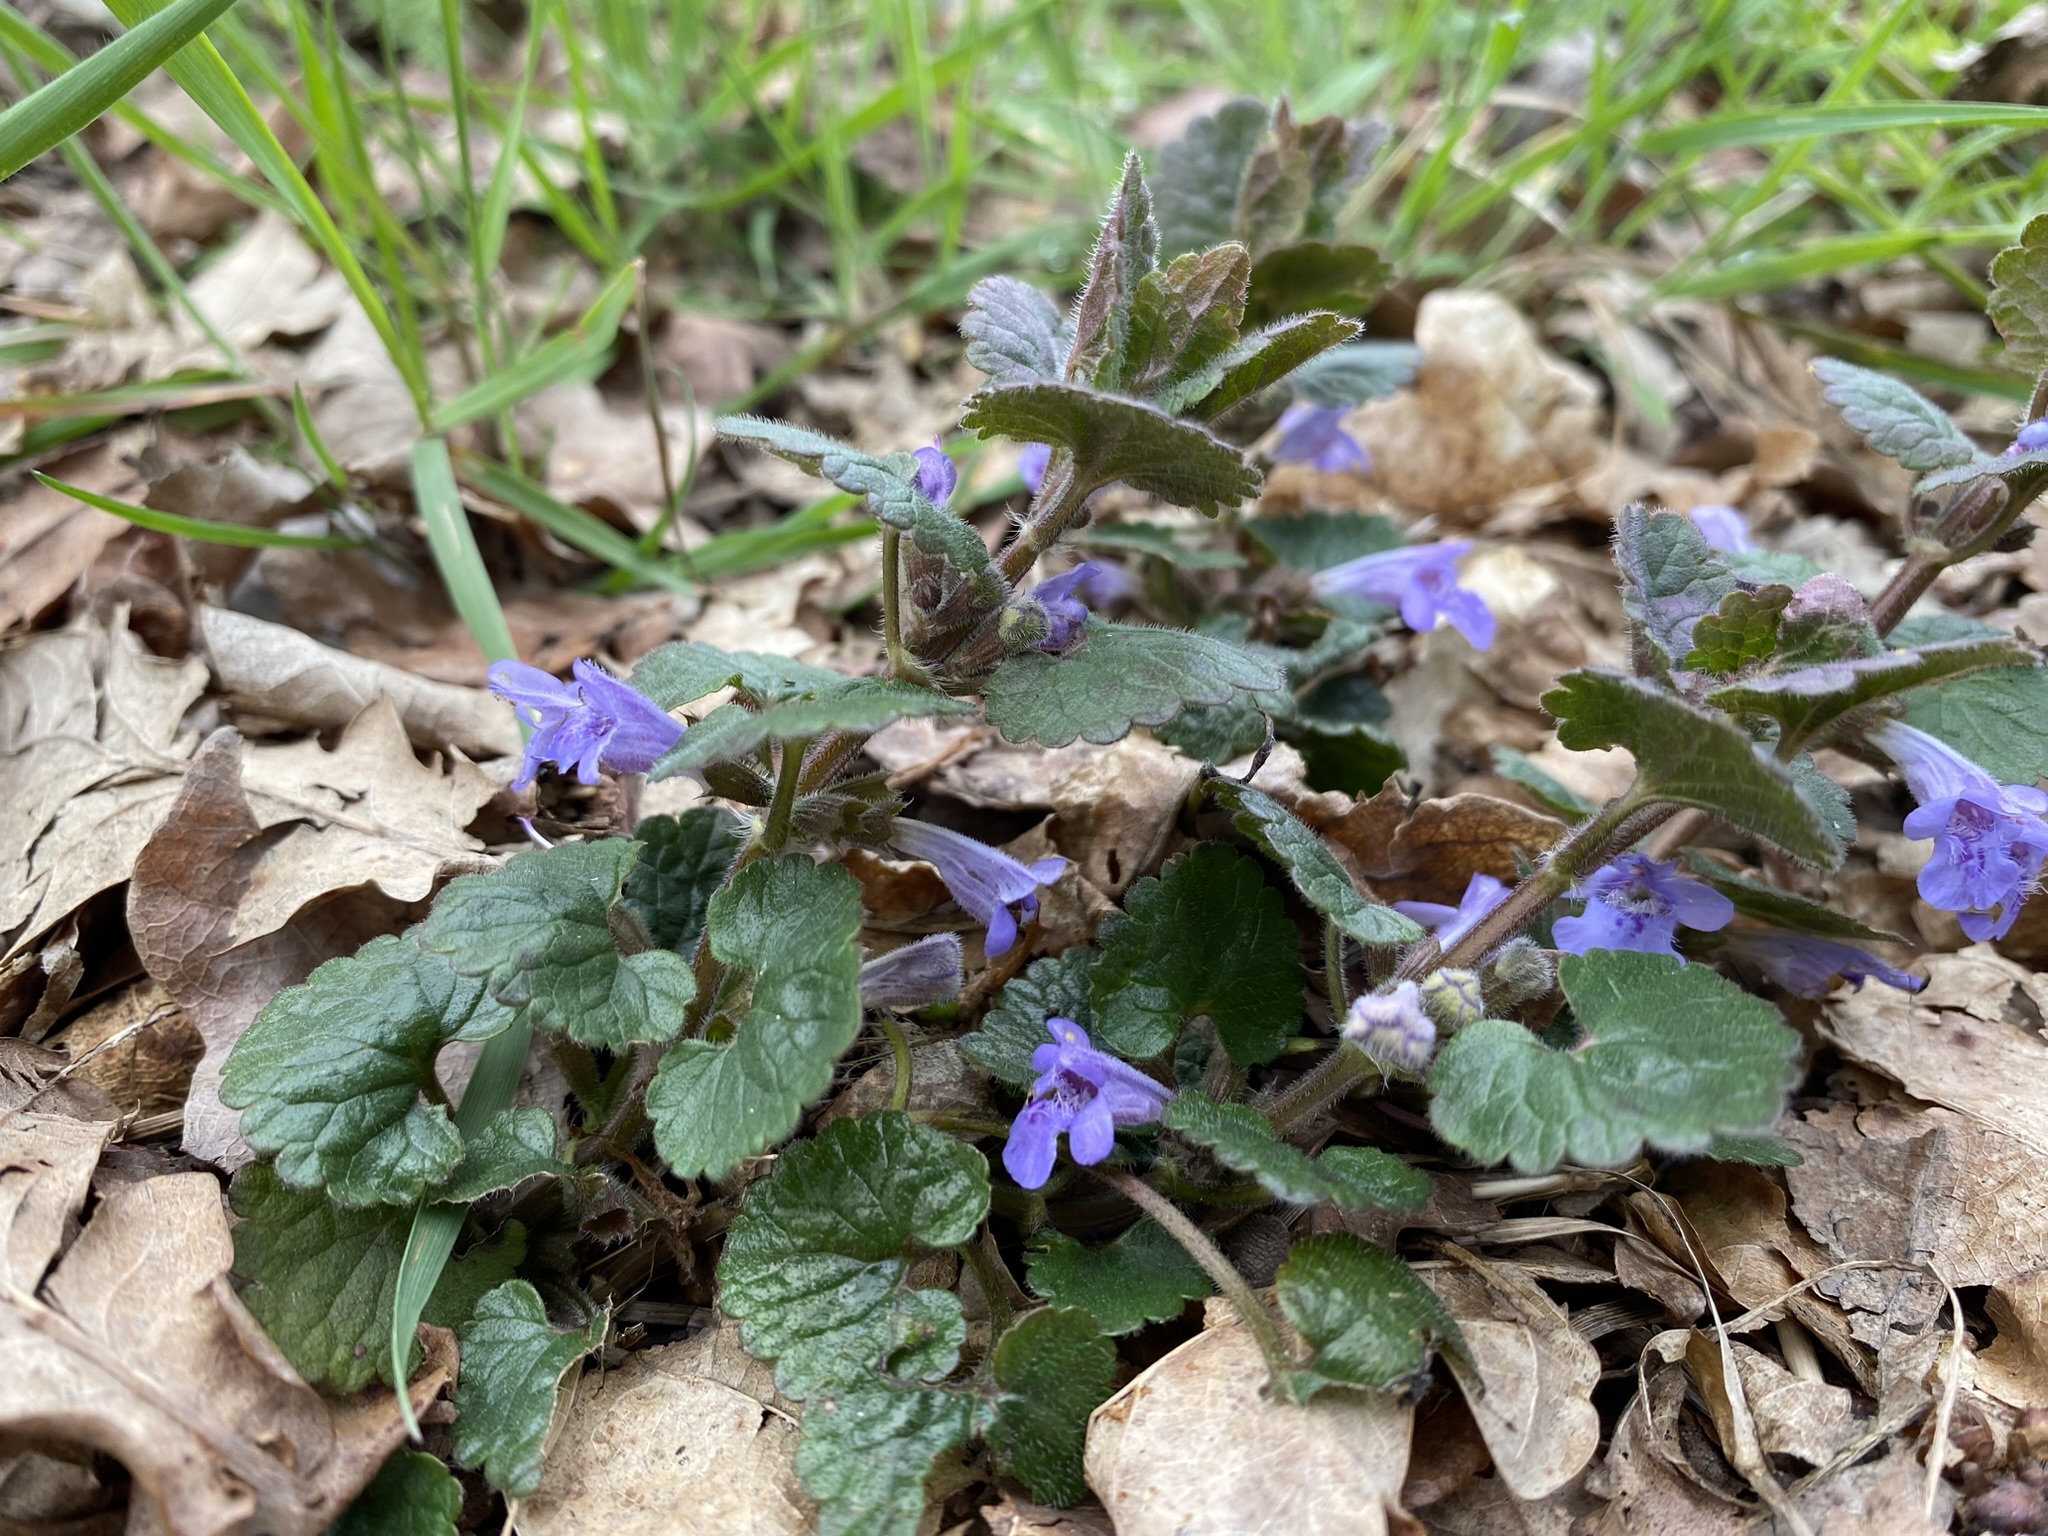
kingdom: Plantae
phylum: Tracheophyta
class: Magnoliopsida
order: Lamiales
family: Lamiaceae
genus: Glechoma
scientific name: Glechoma hederacea
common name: Ground ivy
